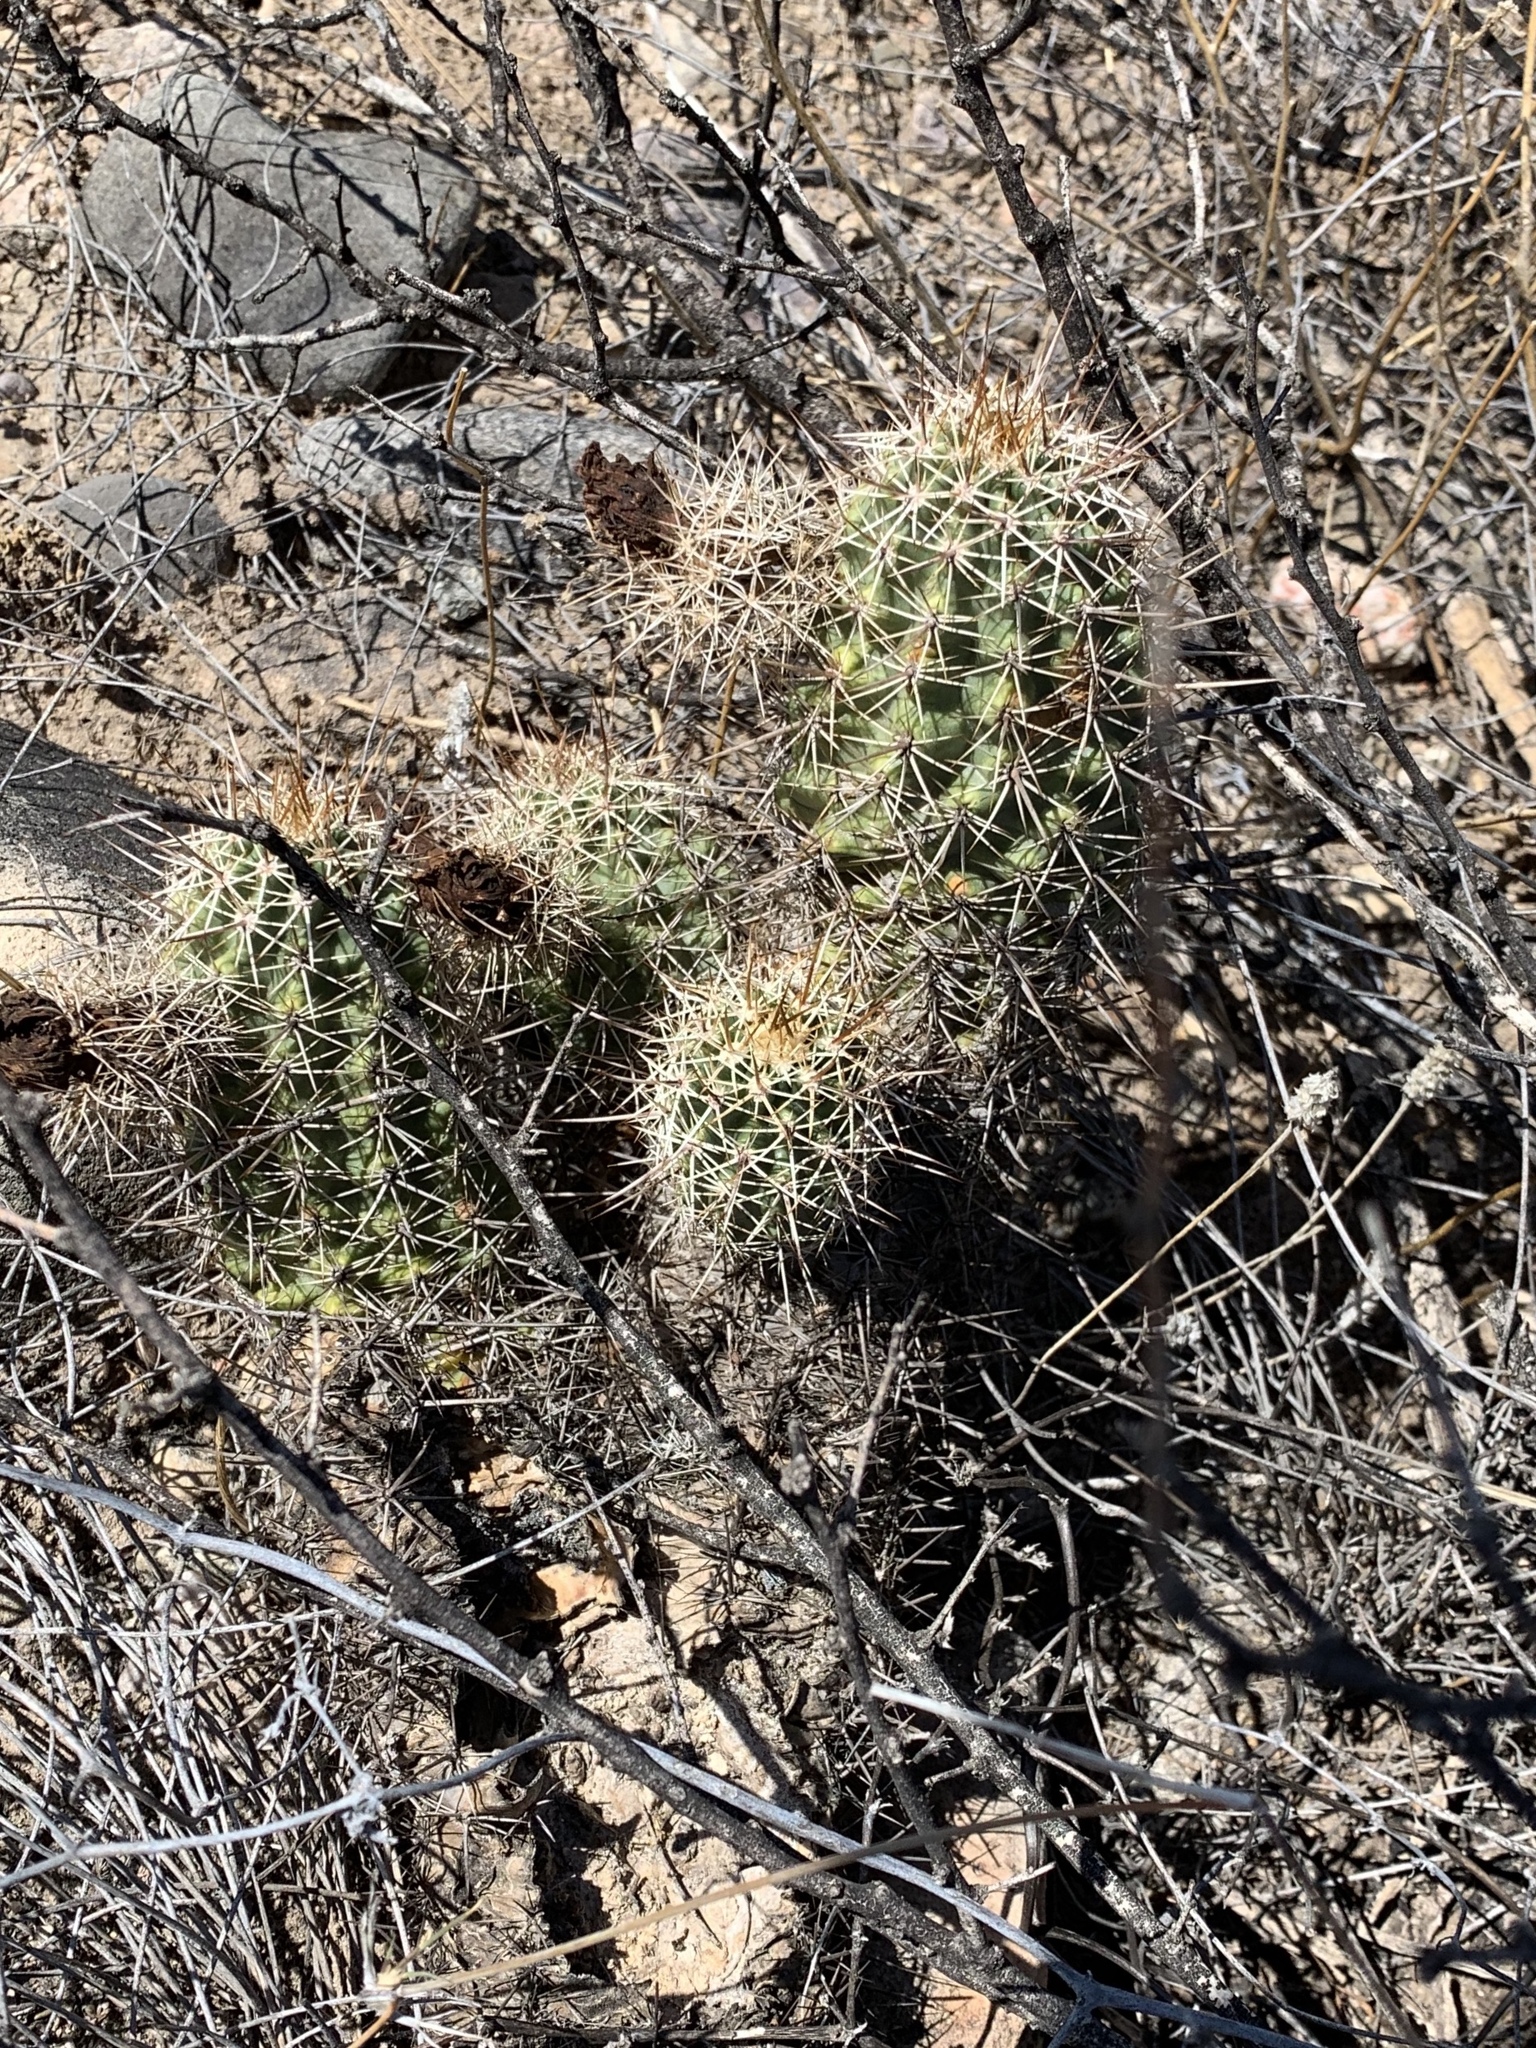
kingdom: Plantae
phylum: Tracheophyta
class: Magnoliopsida
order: Caryophyllales
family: Cactaceae
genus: Echinocereus
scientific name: Echinocereus fasciculatus
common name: Bundle hedgehog
